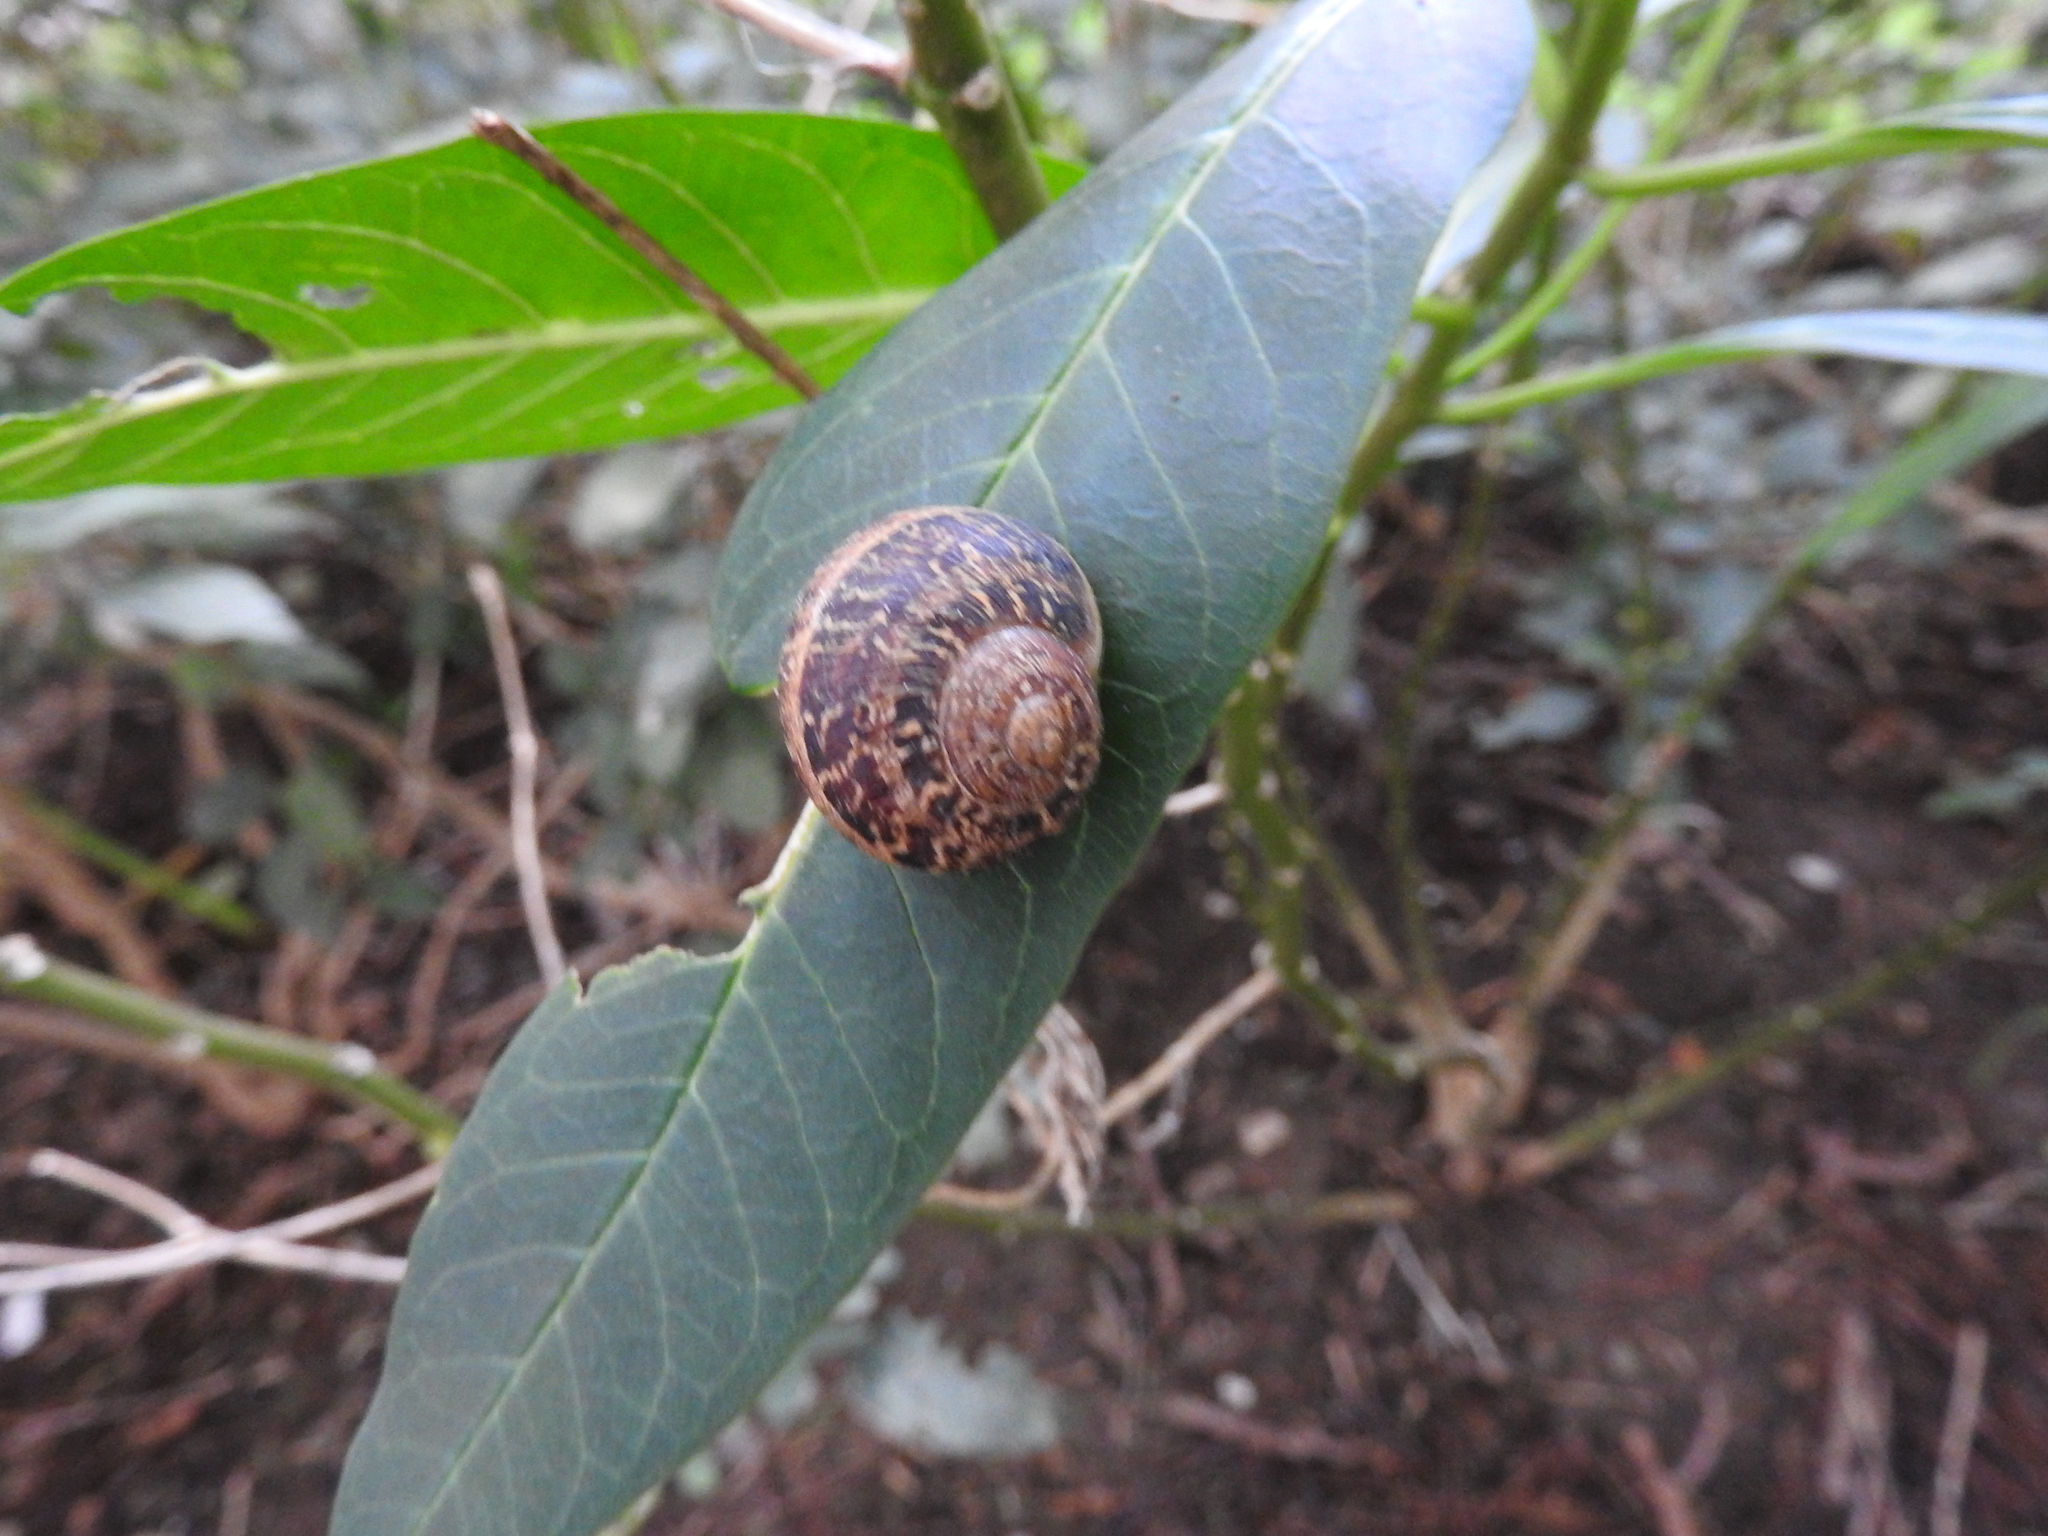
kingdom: Animalia
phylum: Mollusca
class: Gastropoda
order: Stylommatophora
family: Helicidae
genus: Cornu
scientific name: Cornu aspersum
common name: Brown garden snail
